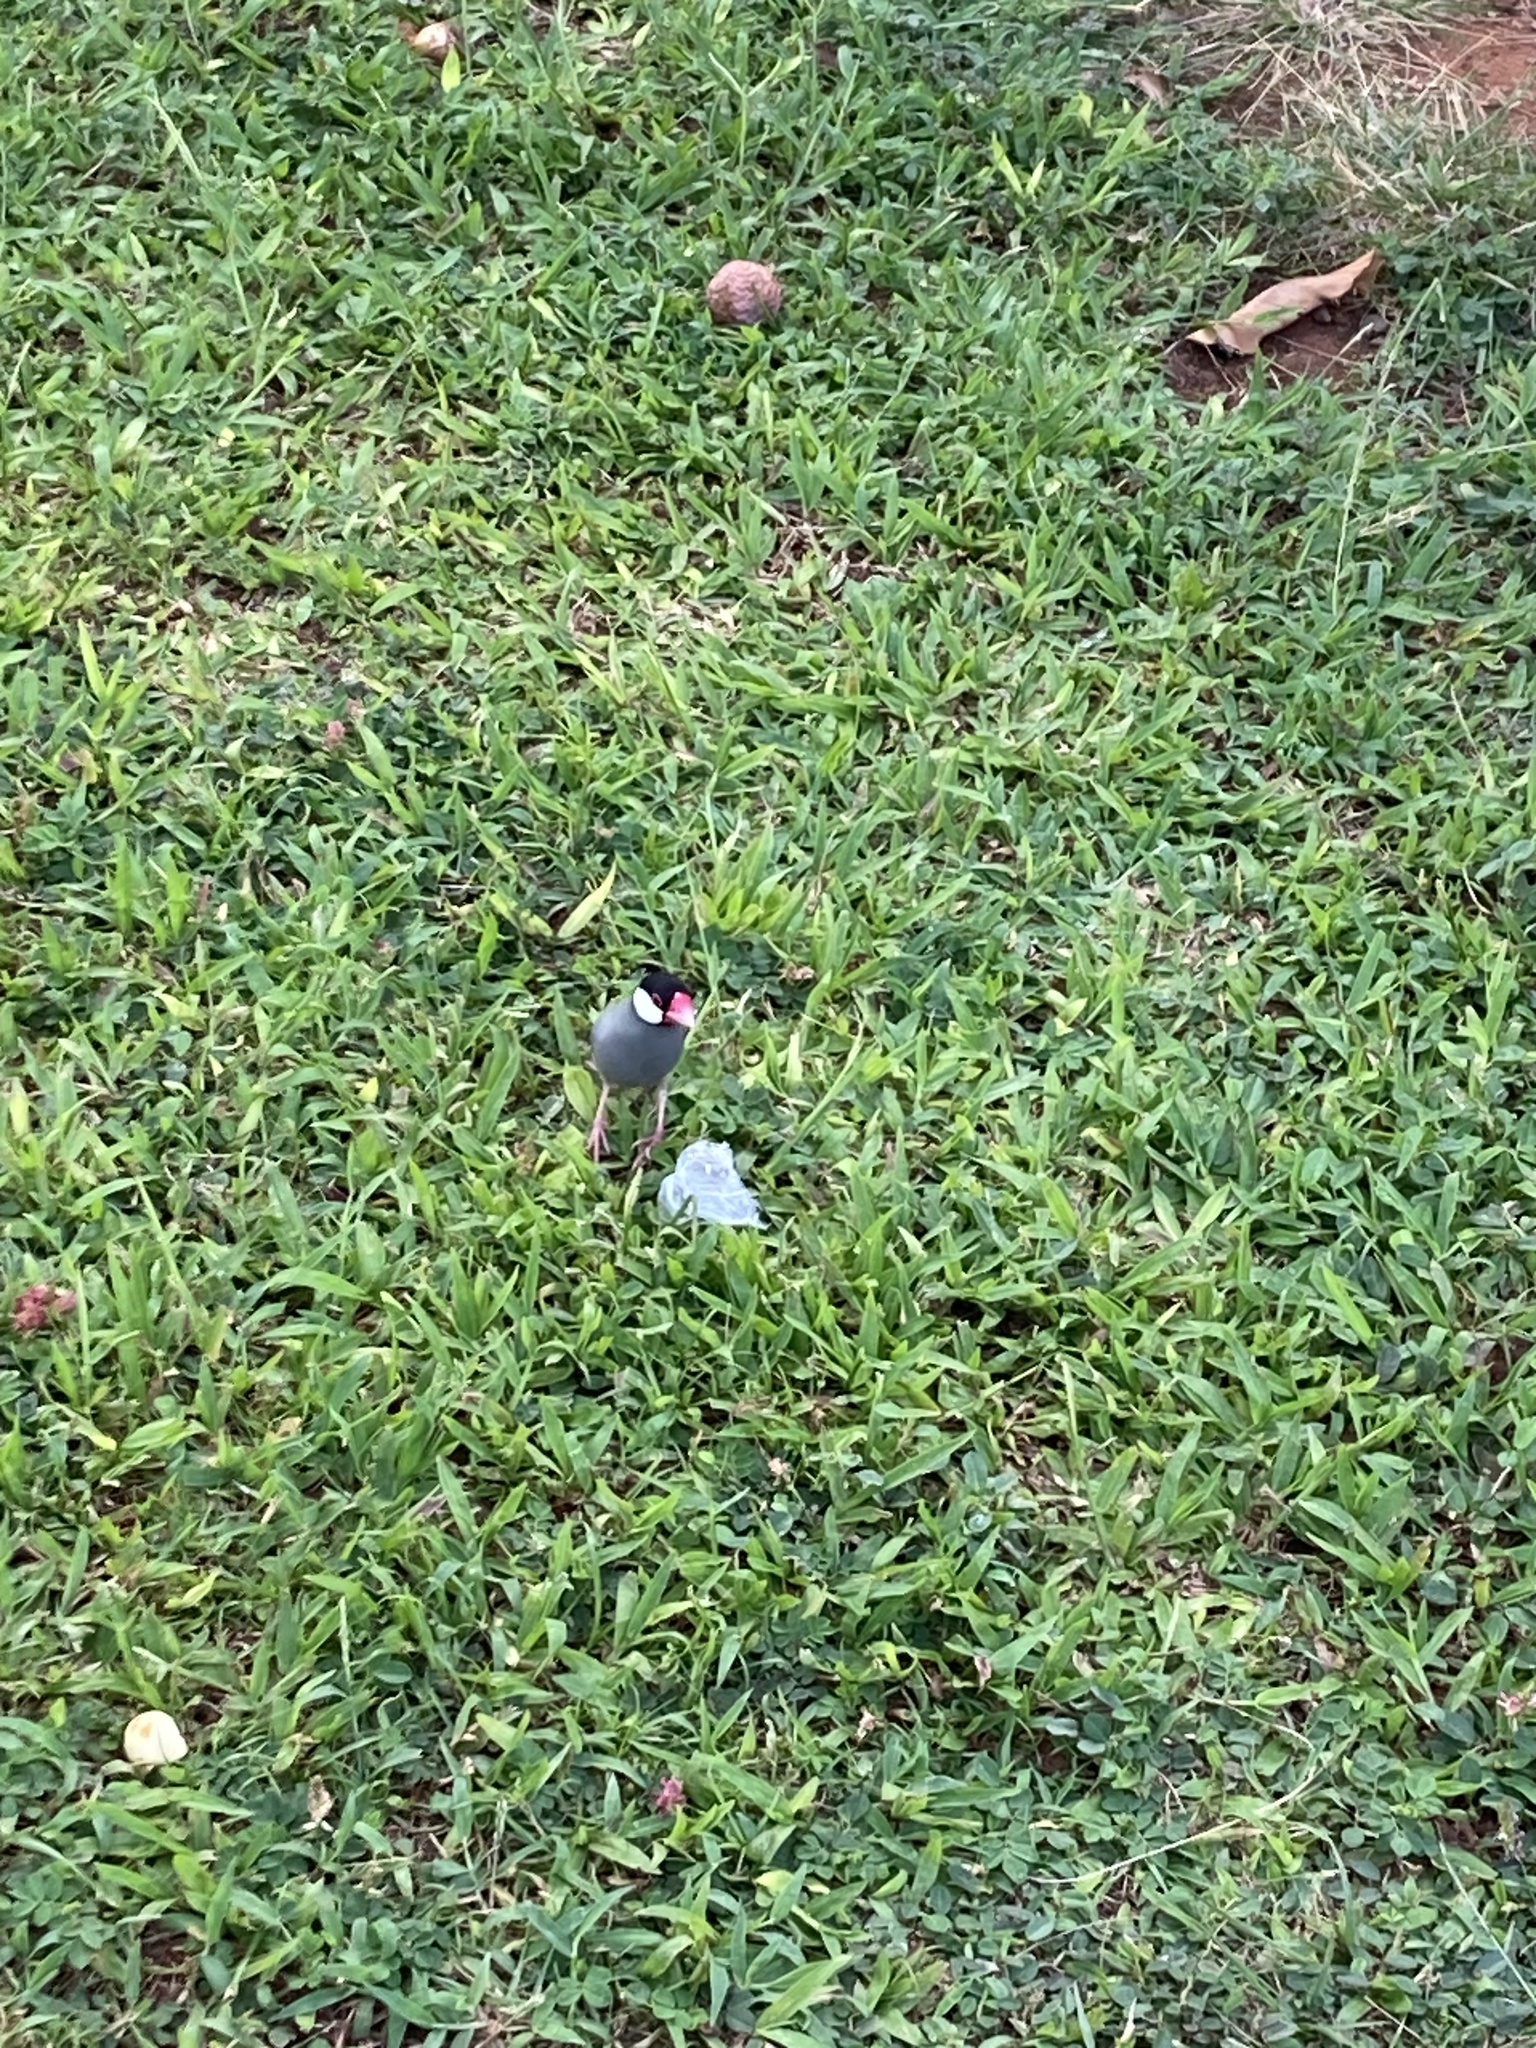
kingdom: Animalia
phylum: Chordata
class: Aves
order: Passeriformes
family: Estrildidae
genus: Lonchura
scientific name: Lonchura oryzivora
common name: Java sparrow
